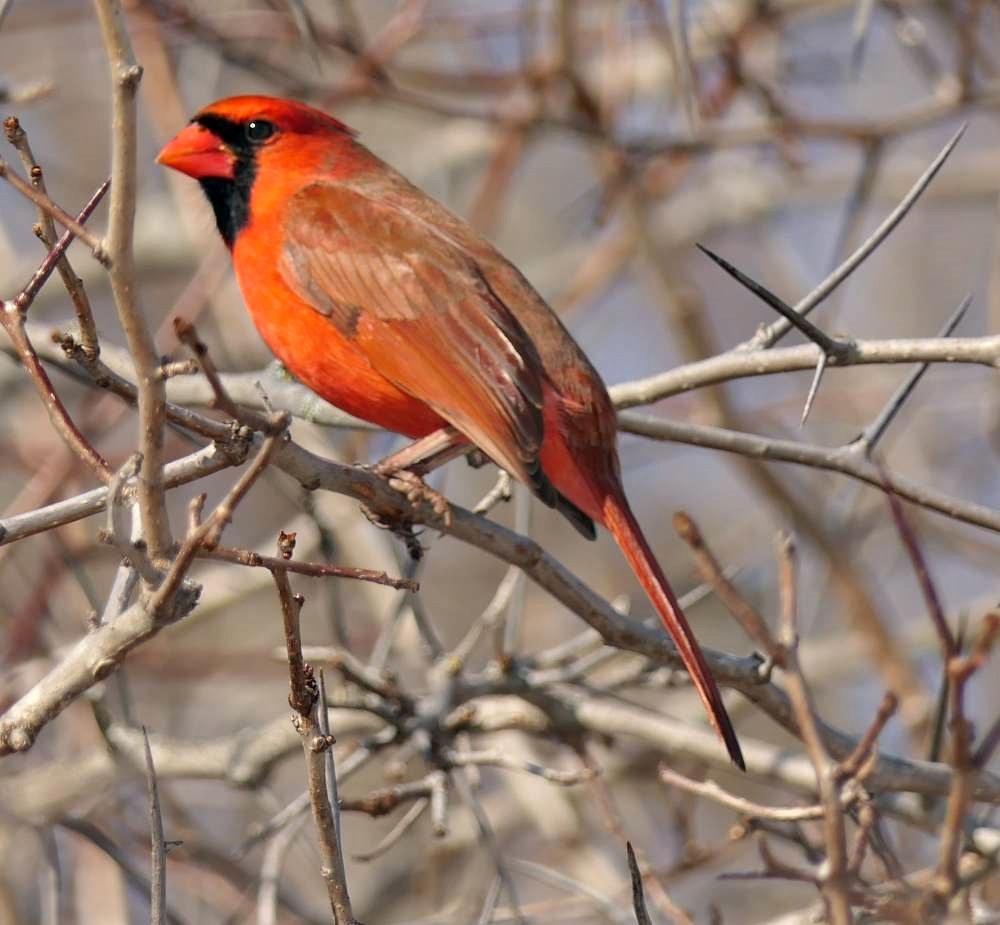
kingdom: Animalia
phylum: Chordata
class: Aves
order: Passeriformes
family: Cardinalidae
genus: Cardinalis
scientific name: Cardinalis cardinalis
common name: Northern cardinal
